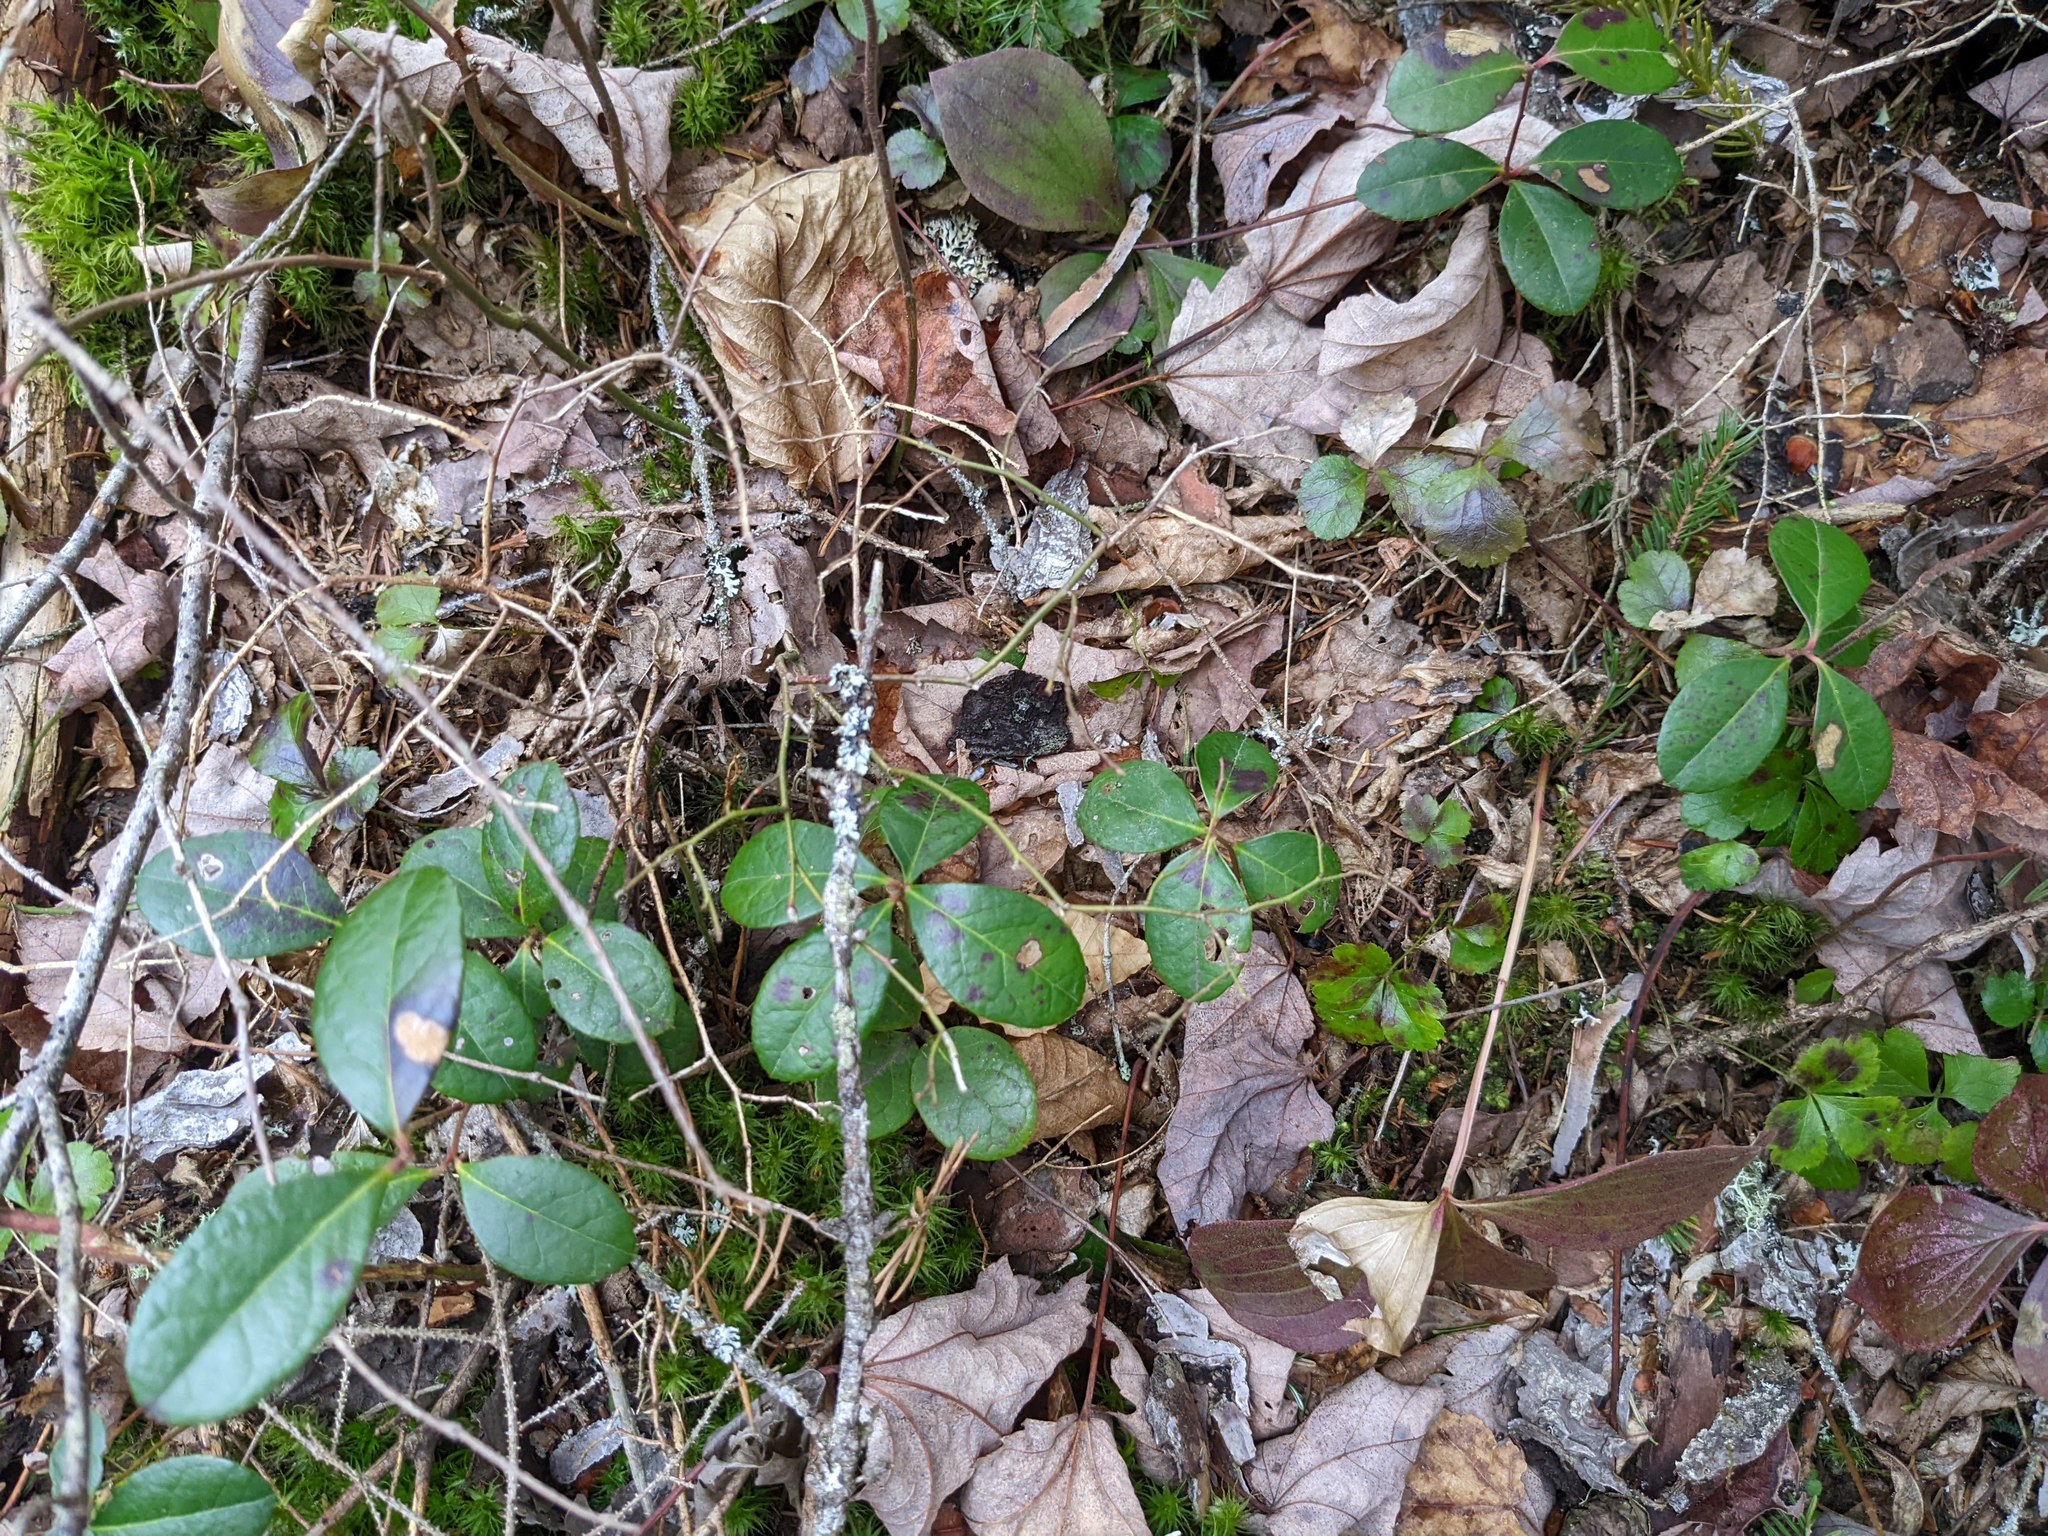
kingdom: Plantae
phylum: Tracheophyta
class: Magnoliopsida
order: Ericales
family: Ericaceae
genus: Gaultheria
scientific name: Gaultheria procumbens
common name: Checkerberry
